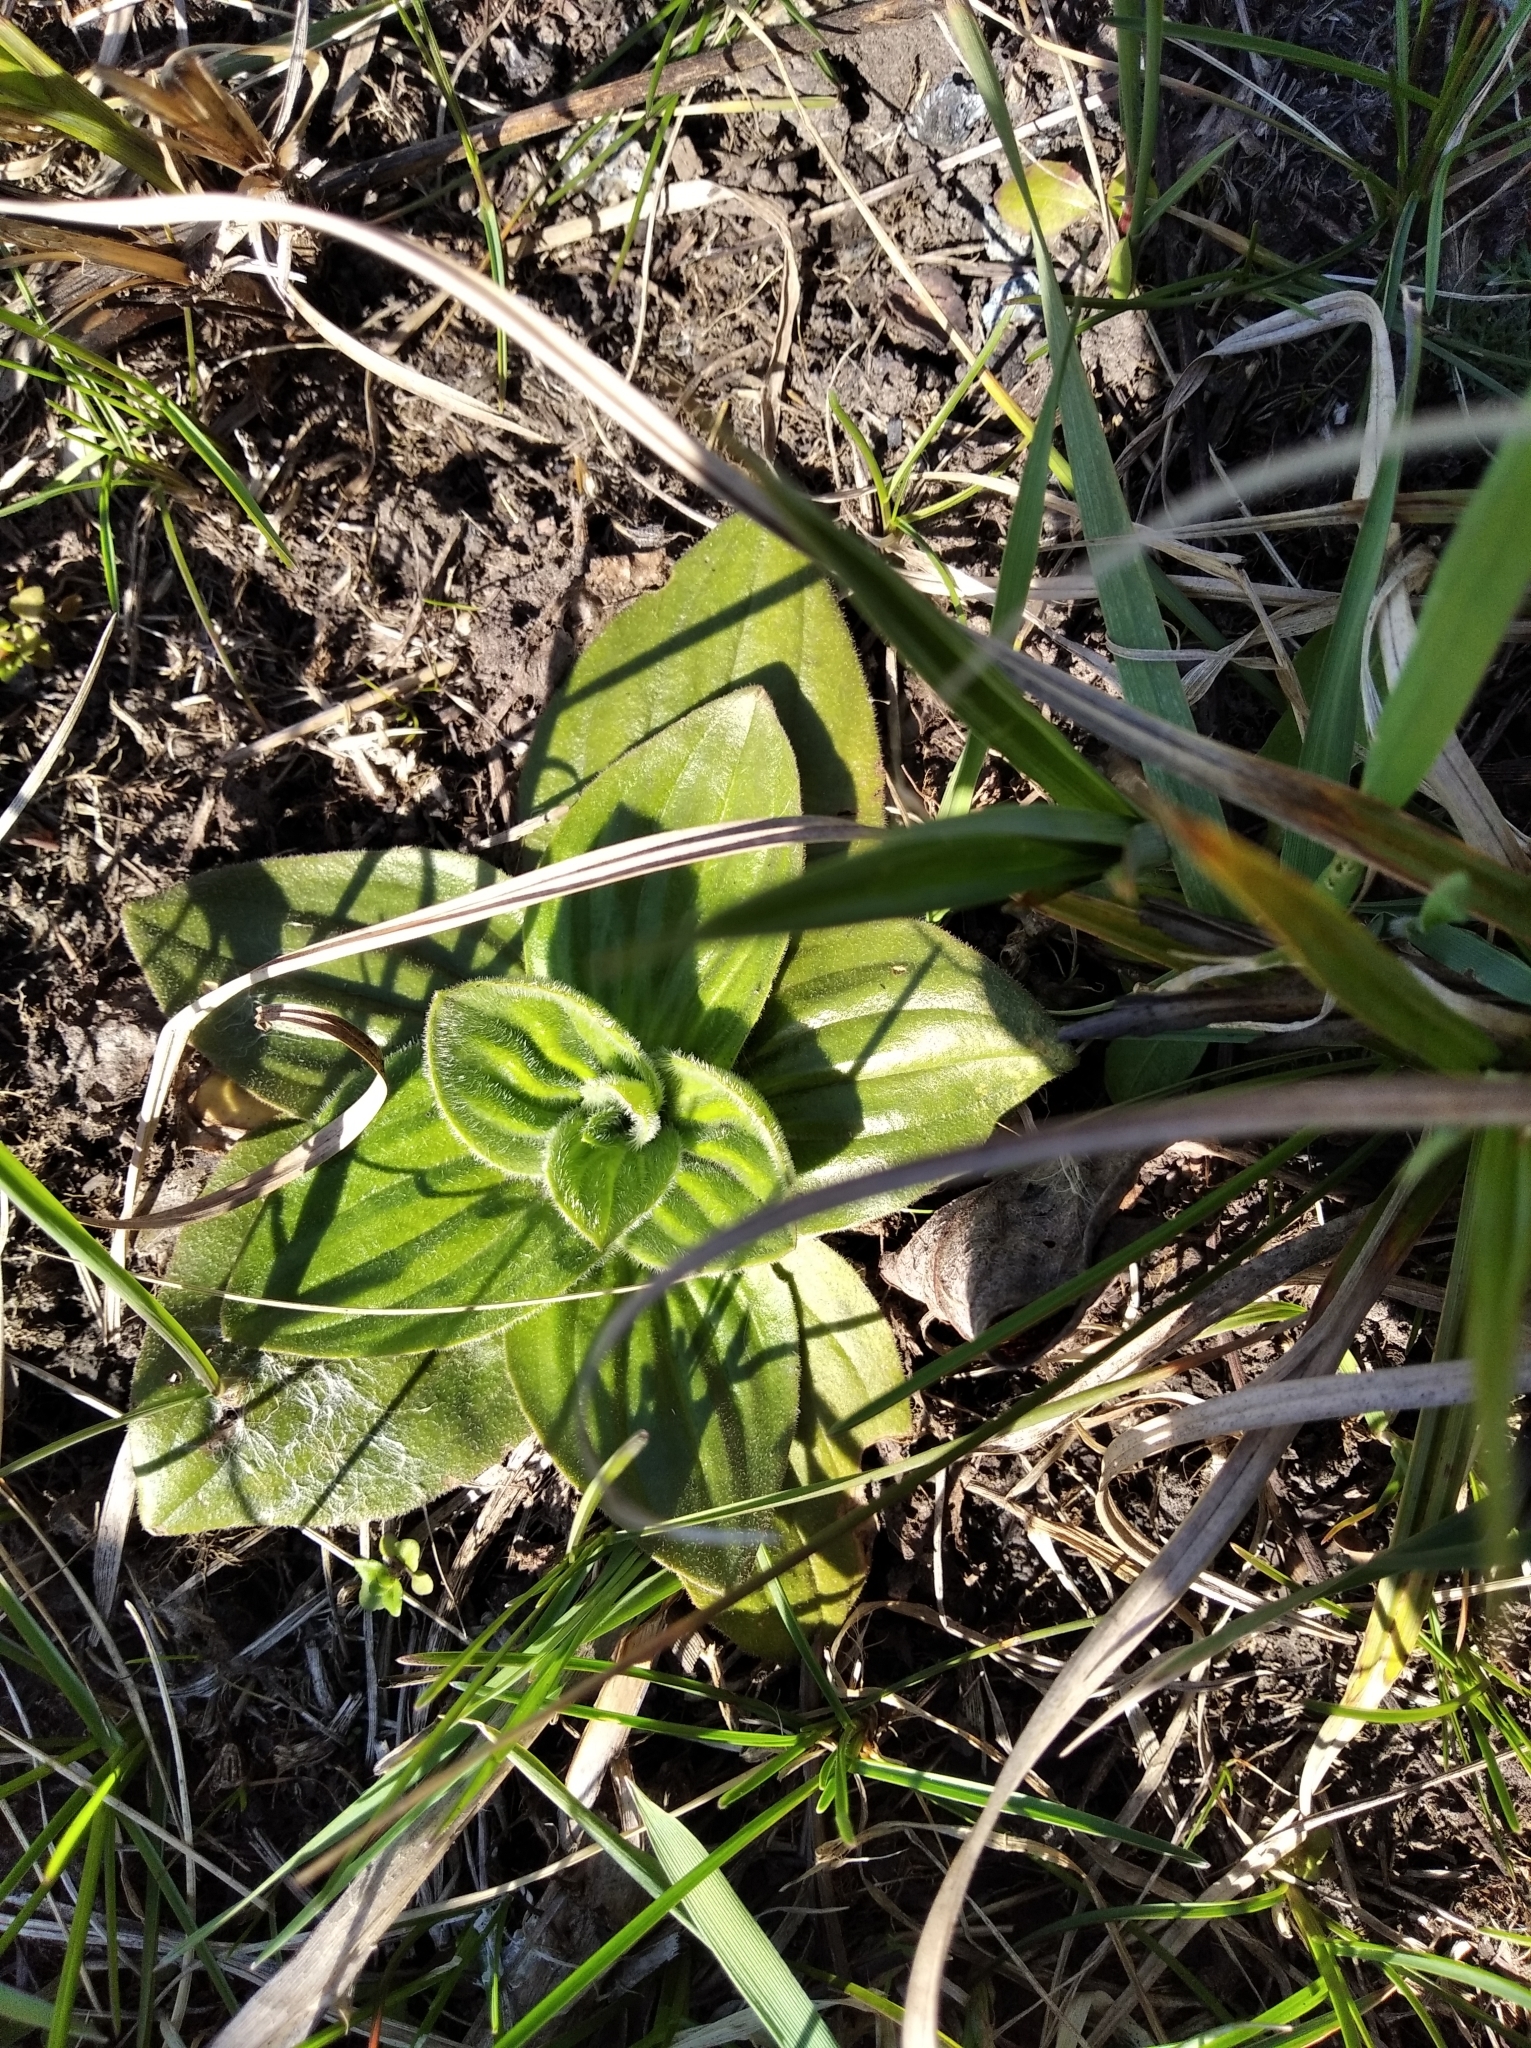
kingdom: Plantae
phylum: Tracheophyta
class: Magnoliopsida
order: Lamiales
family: Plantaginaceae
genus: Plantago
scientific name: Plantago media
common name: Hoary plantain
